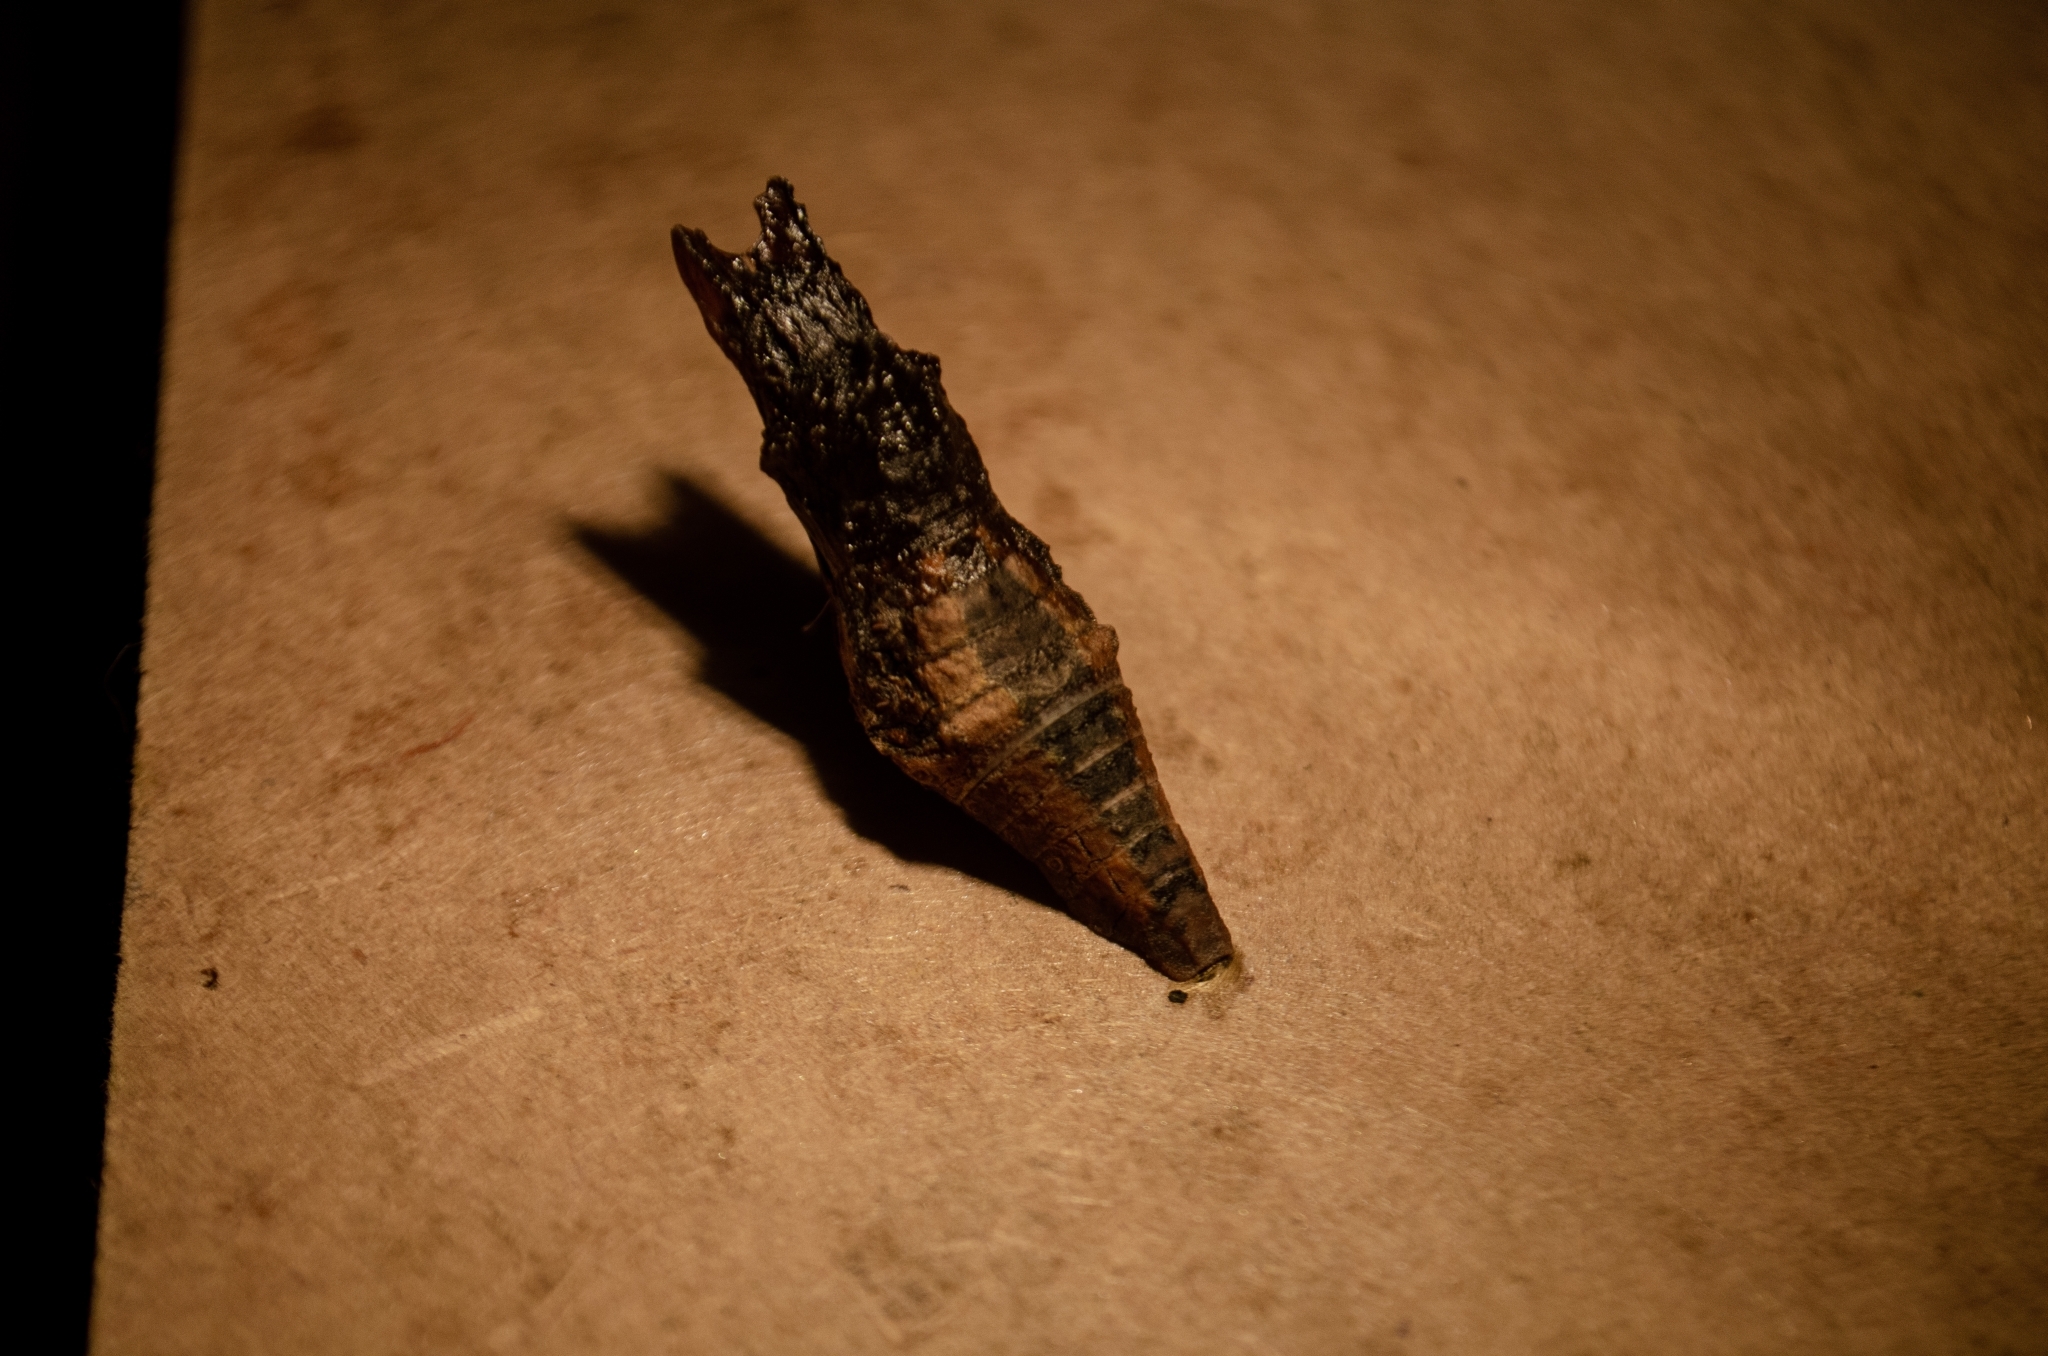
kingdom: Animalia
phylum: Arthropoda
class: Insecta
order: Lepidoptera
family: Papilionidae
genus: Papilio
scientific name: Papilio thoas
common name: King swallowtail
